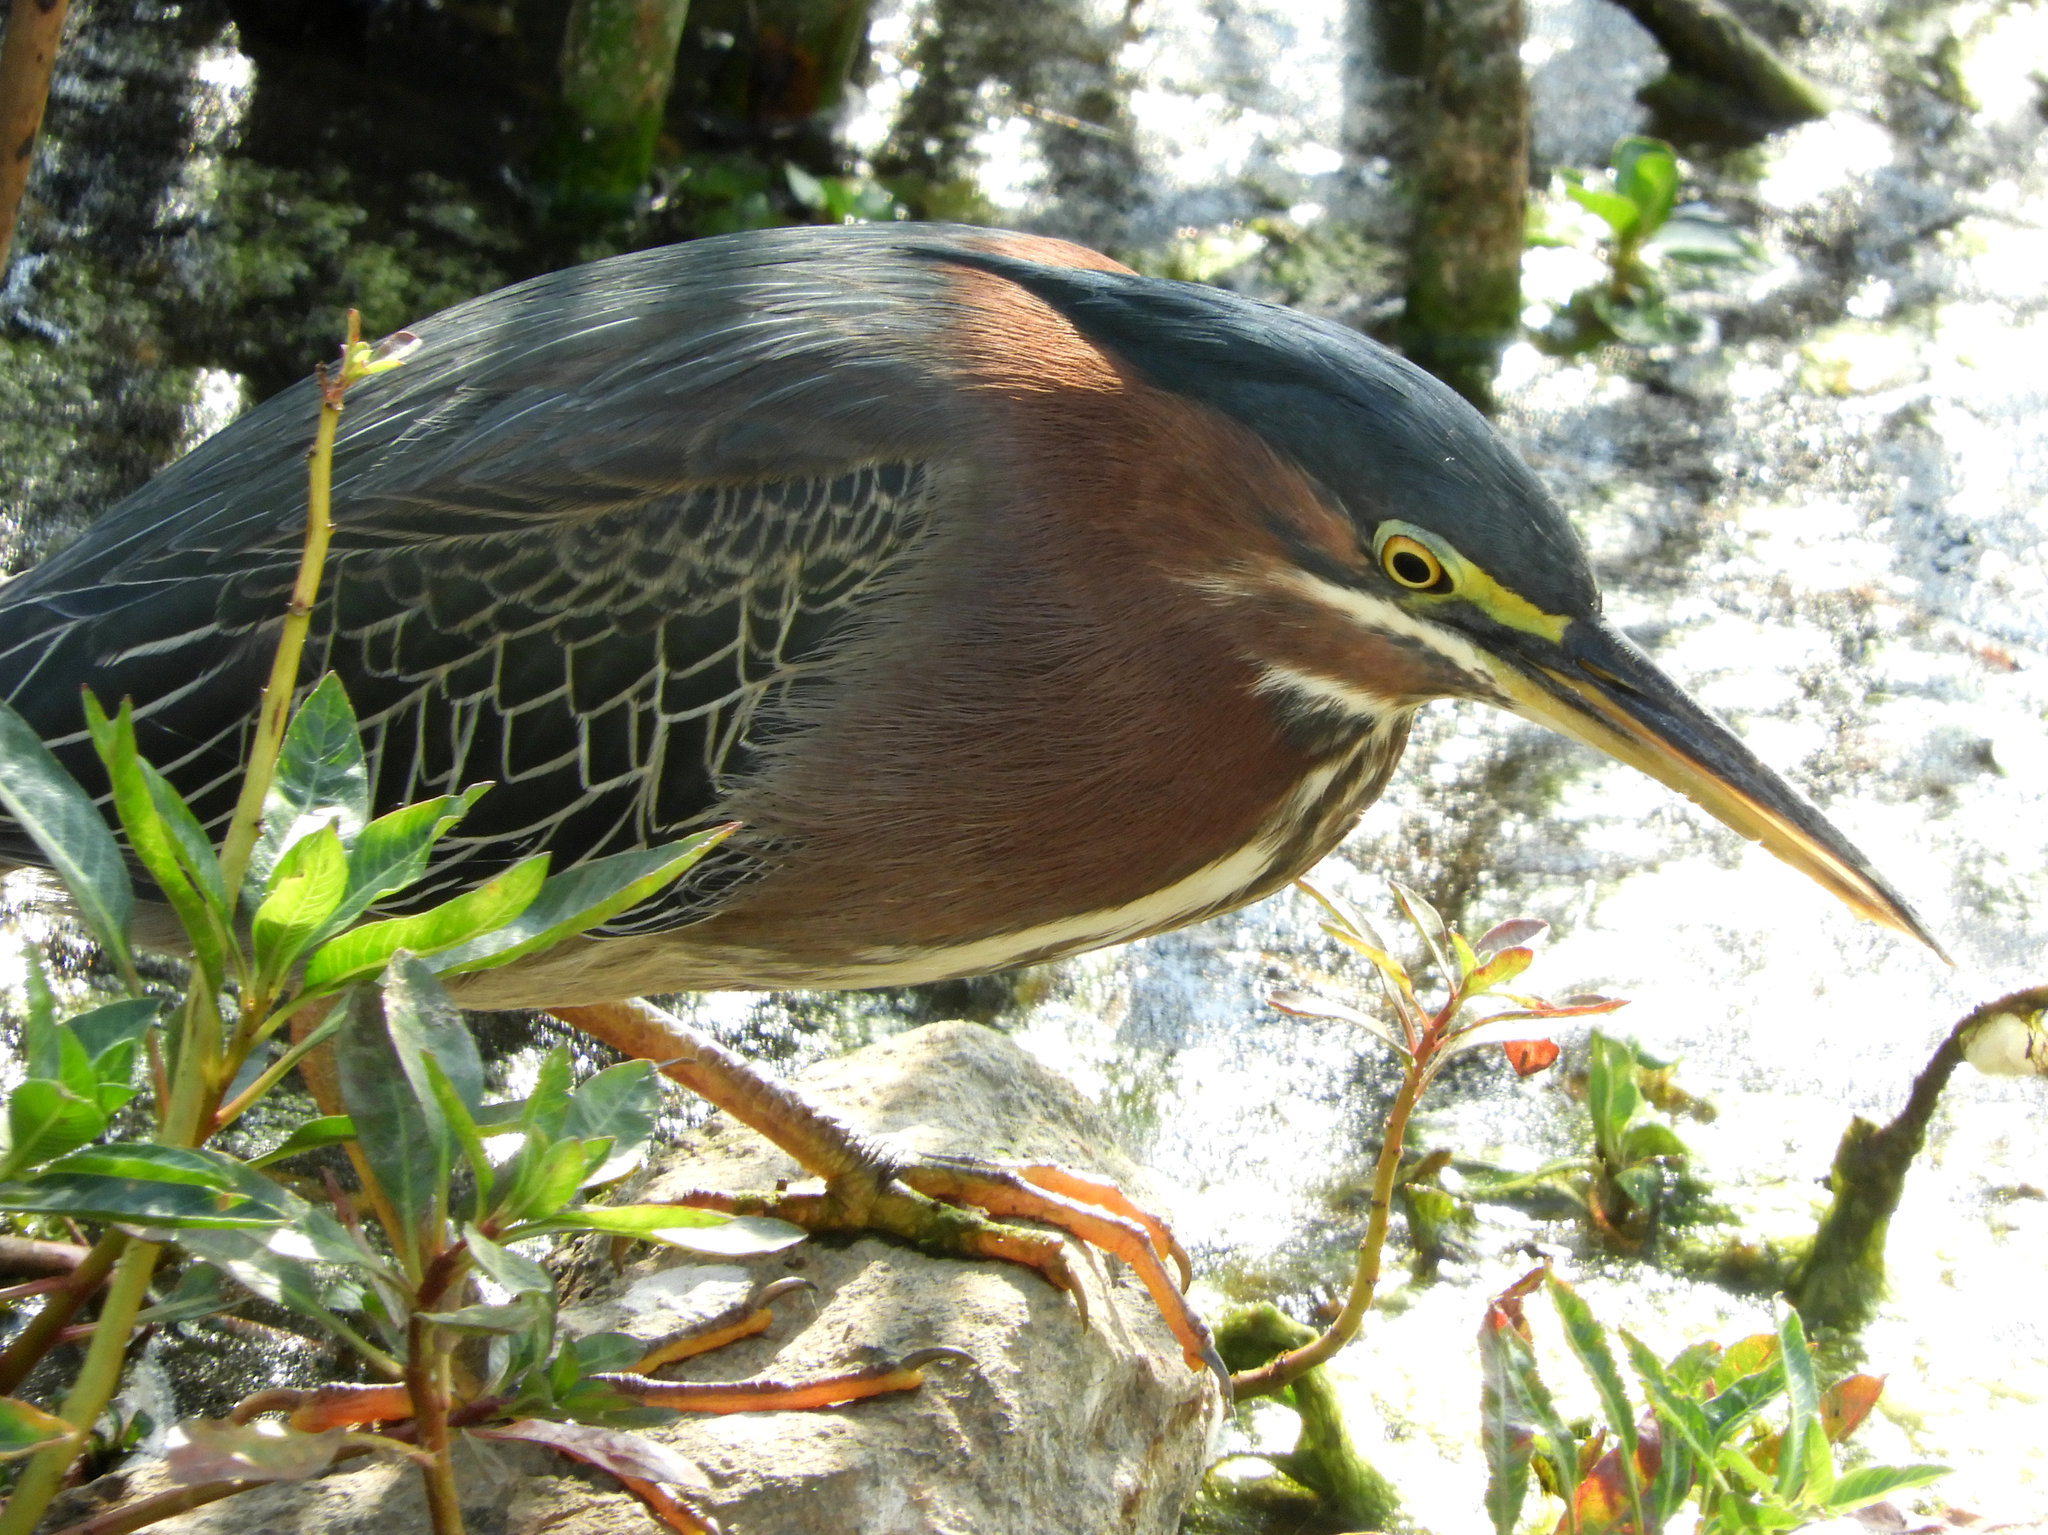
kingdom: Animalia
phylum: Chordata
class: Aves
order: Pelecaniformes
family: Ardeidae
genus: Butorides
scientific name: Butorides virescens
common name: Green heron
